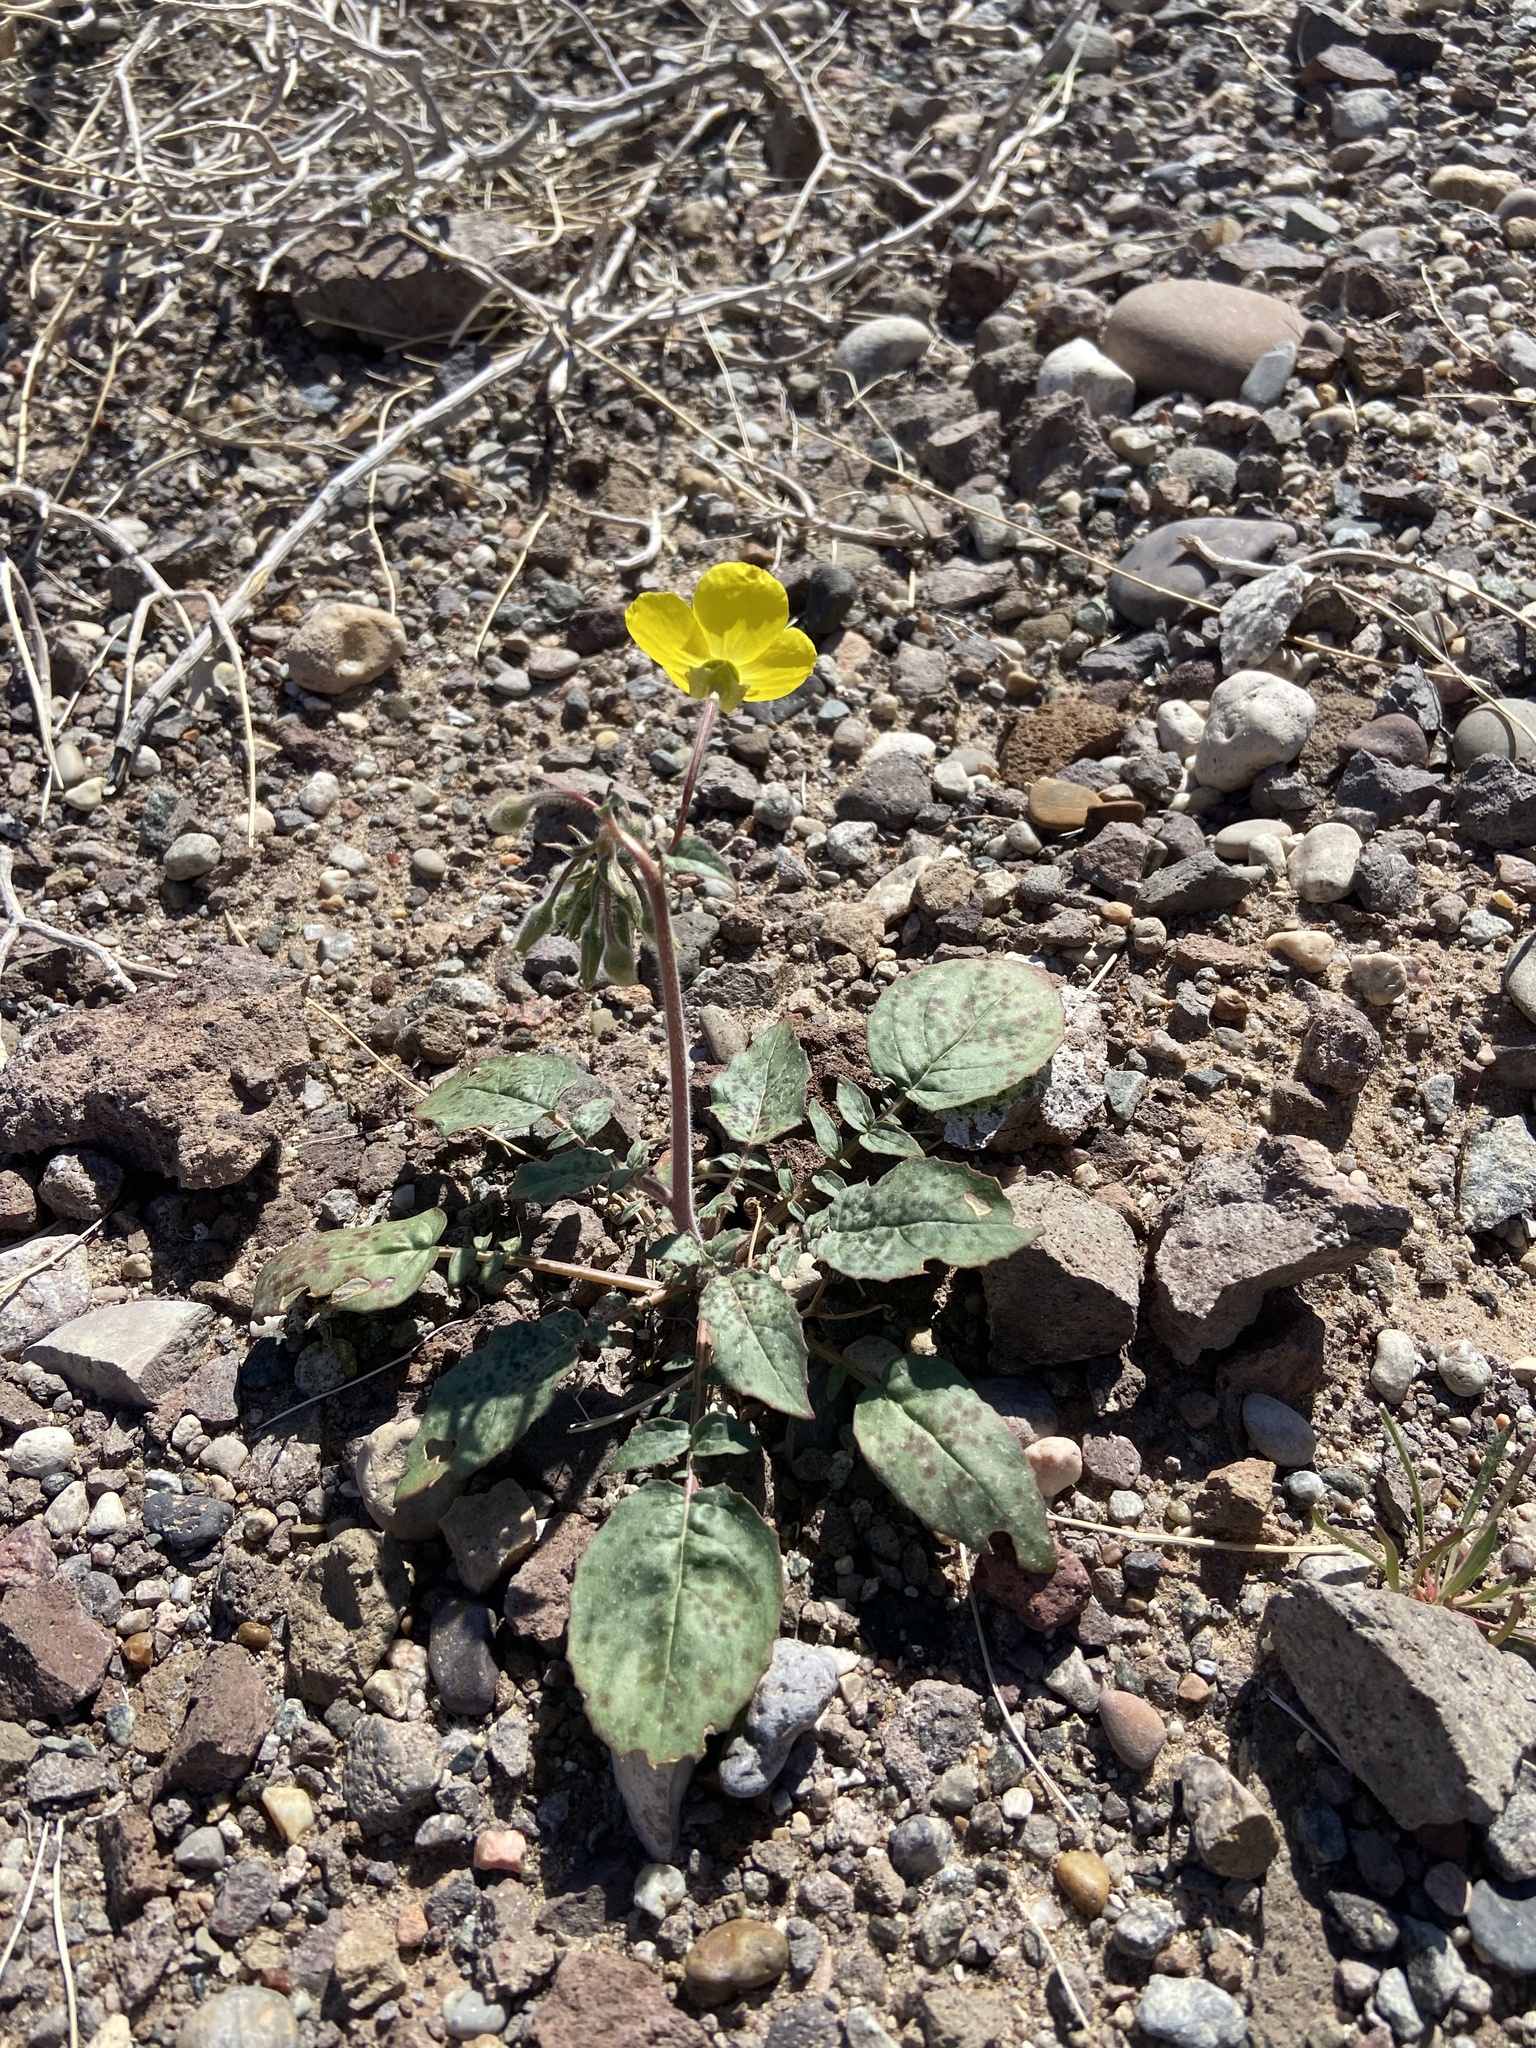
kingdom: Plantae
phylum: Tracheophyta
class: Magnoliopsida
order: Myrtales
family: Onagraceae
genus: Chylismia
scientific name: Chylismia brevipes
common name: Yellow cups
